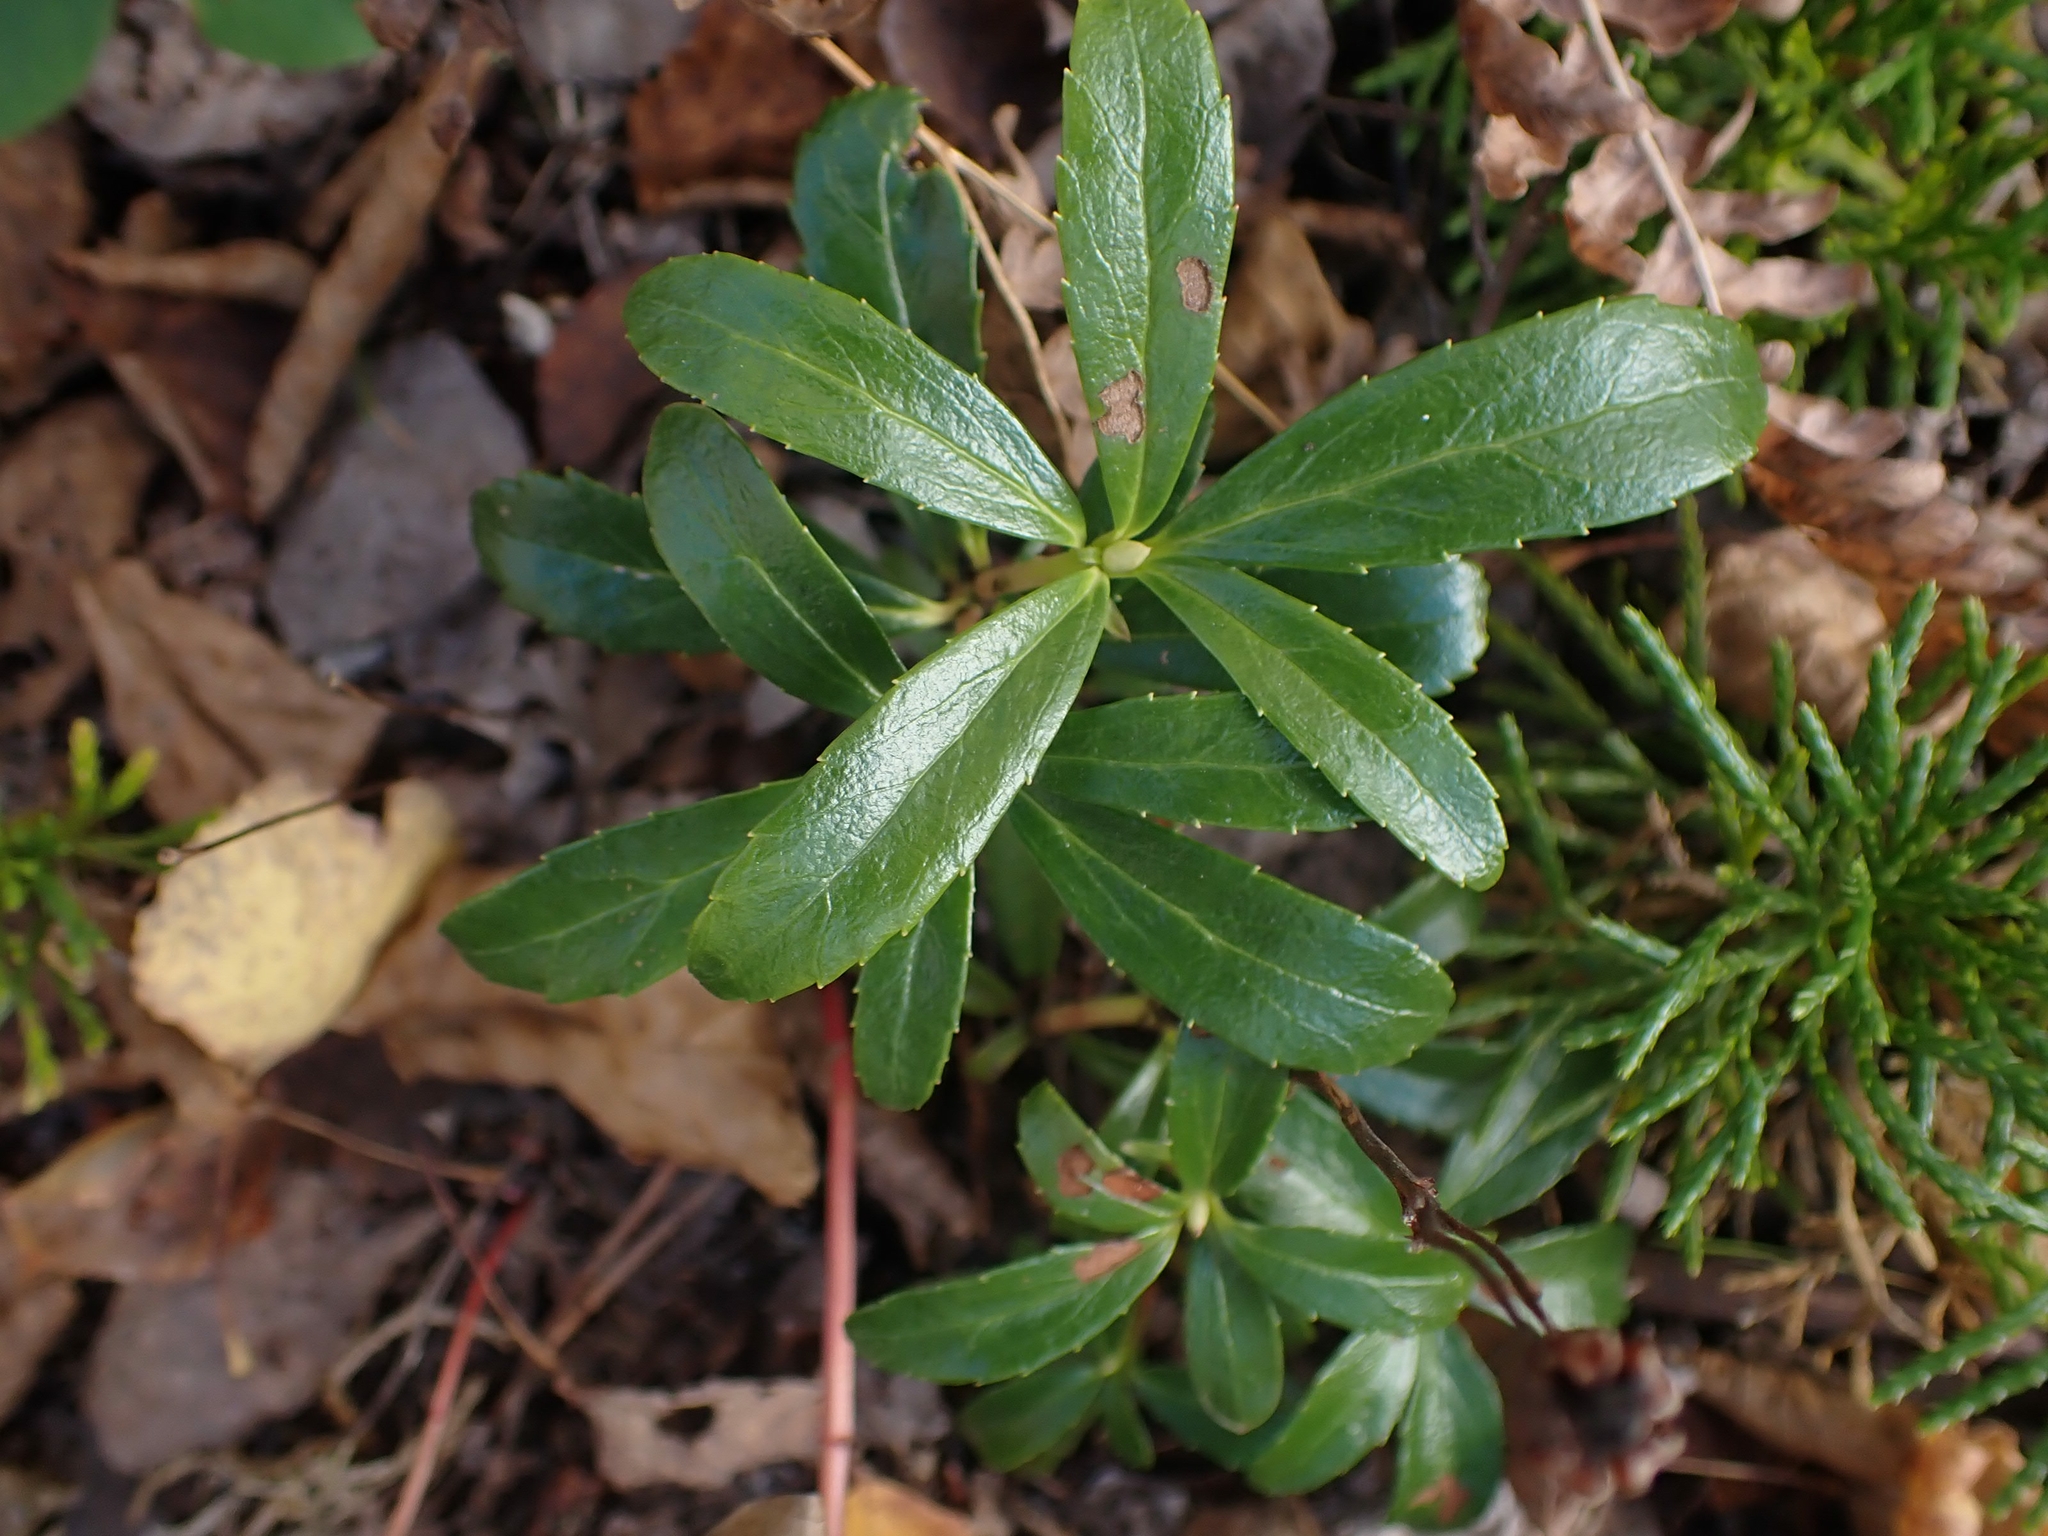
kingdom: Plantae
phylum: Tracheophyta
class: Magnoliopsida
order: Ericales
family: Ericaceae
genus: Chimaphila
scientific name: Chimaphila umbellata
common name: Pipsissewa
